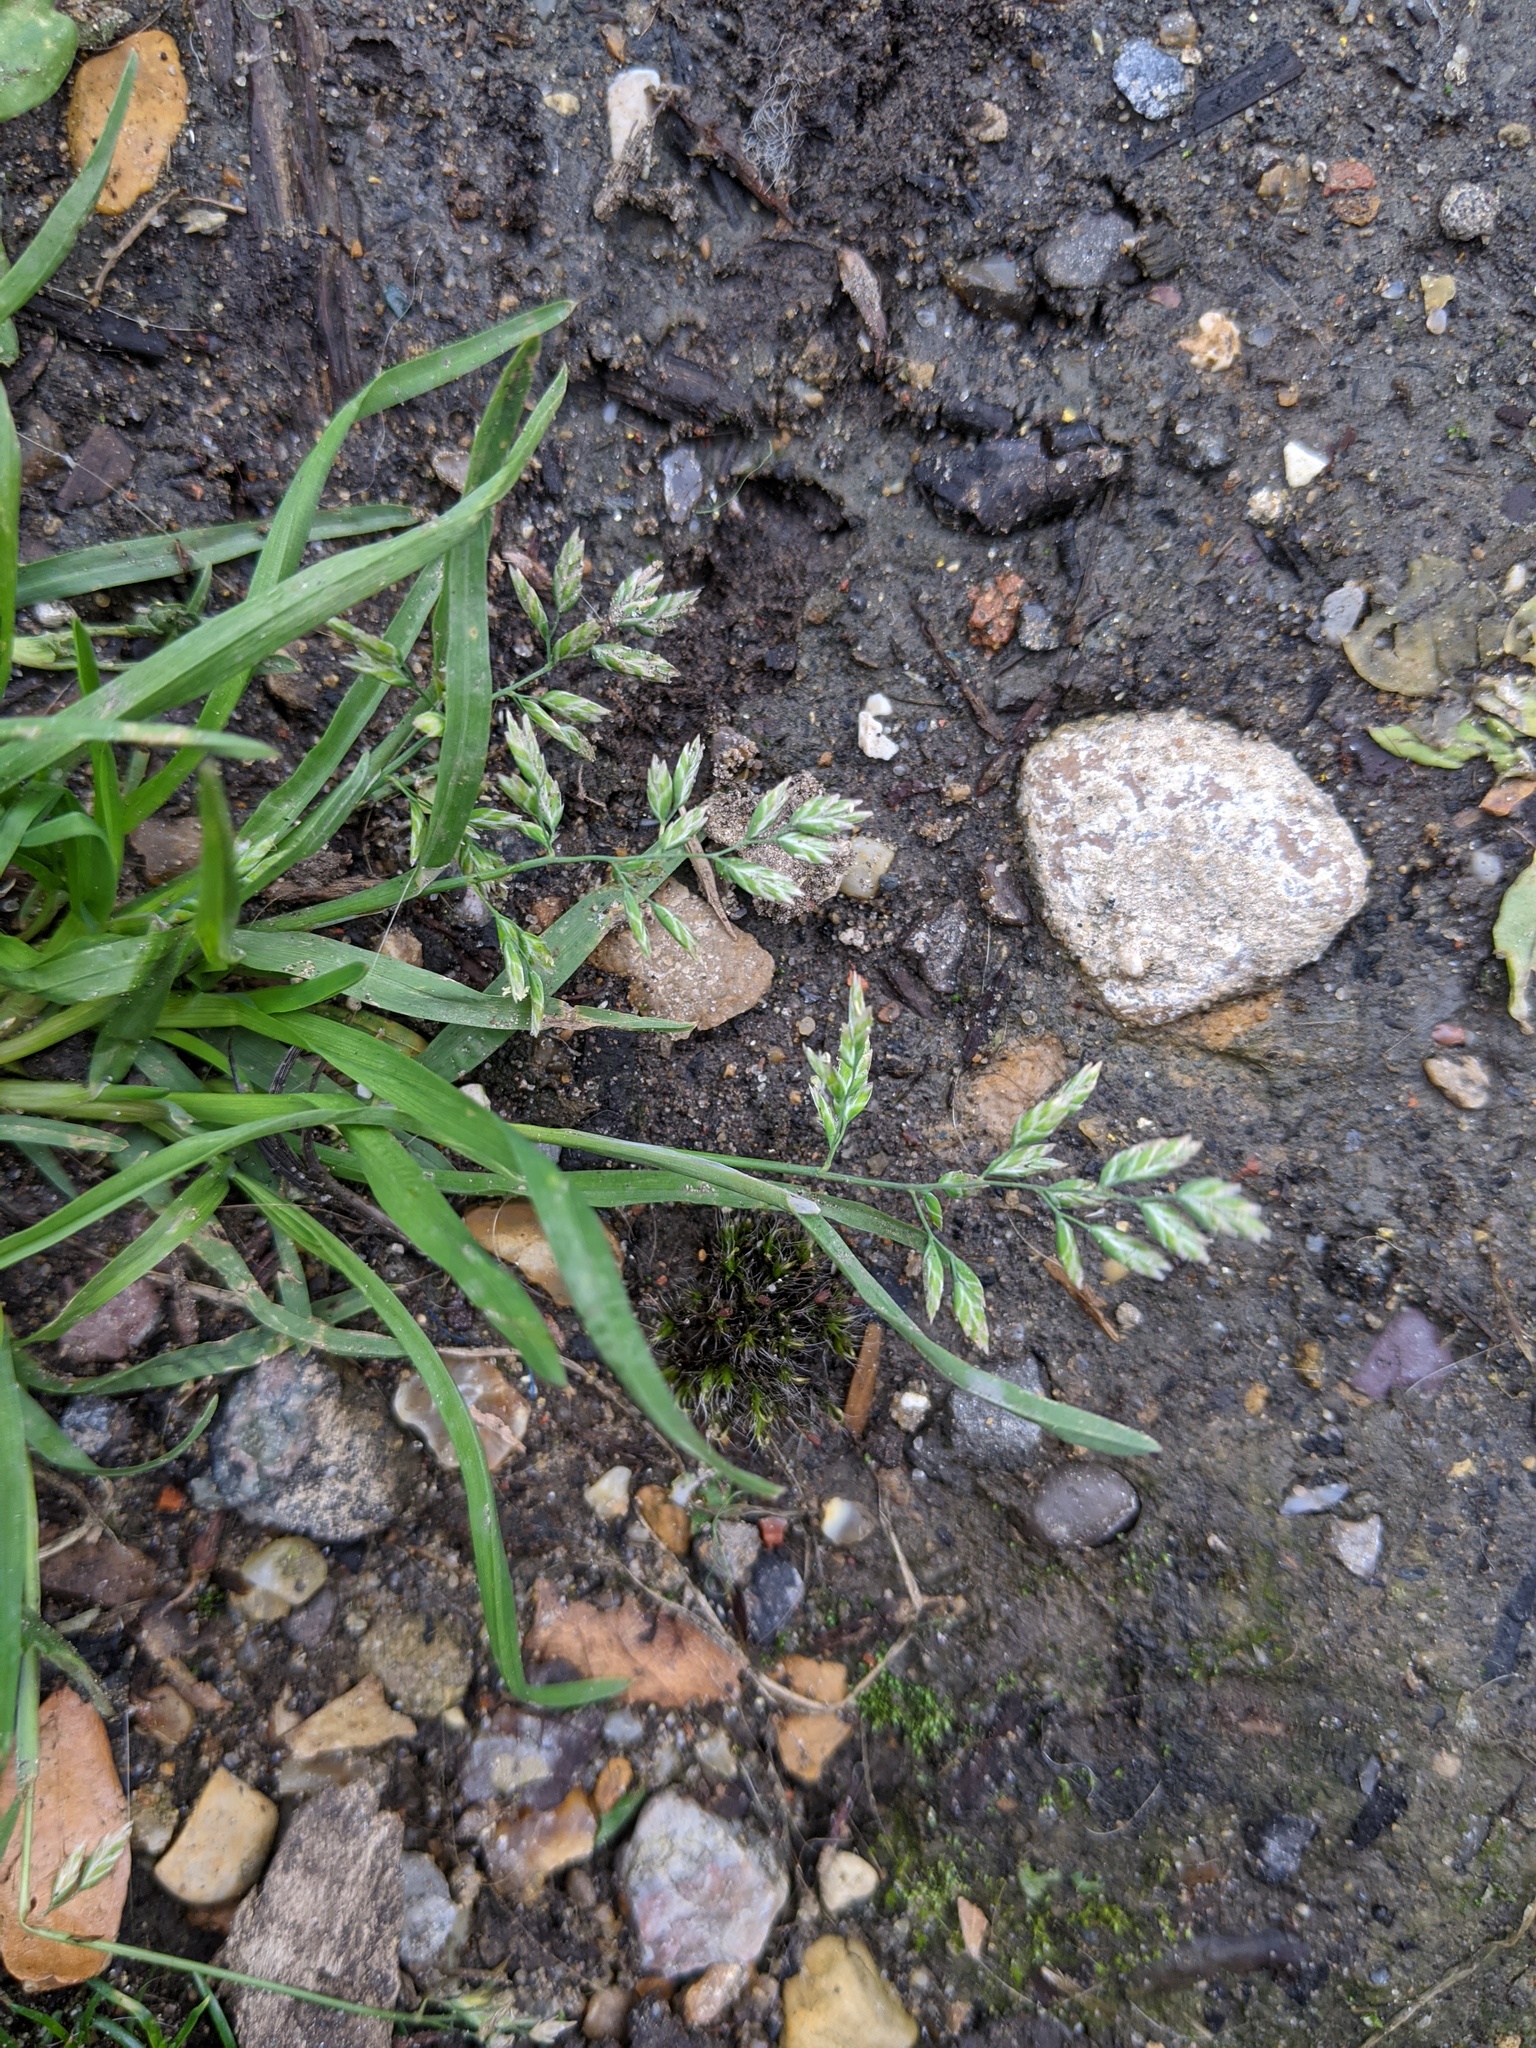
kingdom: Plantae
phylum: Tracheophyta
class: Liliopsida
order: Poales
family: Poaceae
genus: Poa
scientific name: Poa annua
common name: Annual bluegrass
